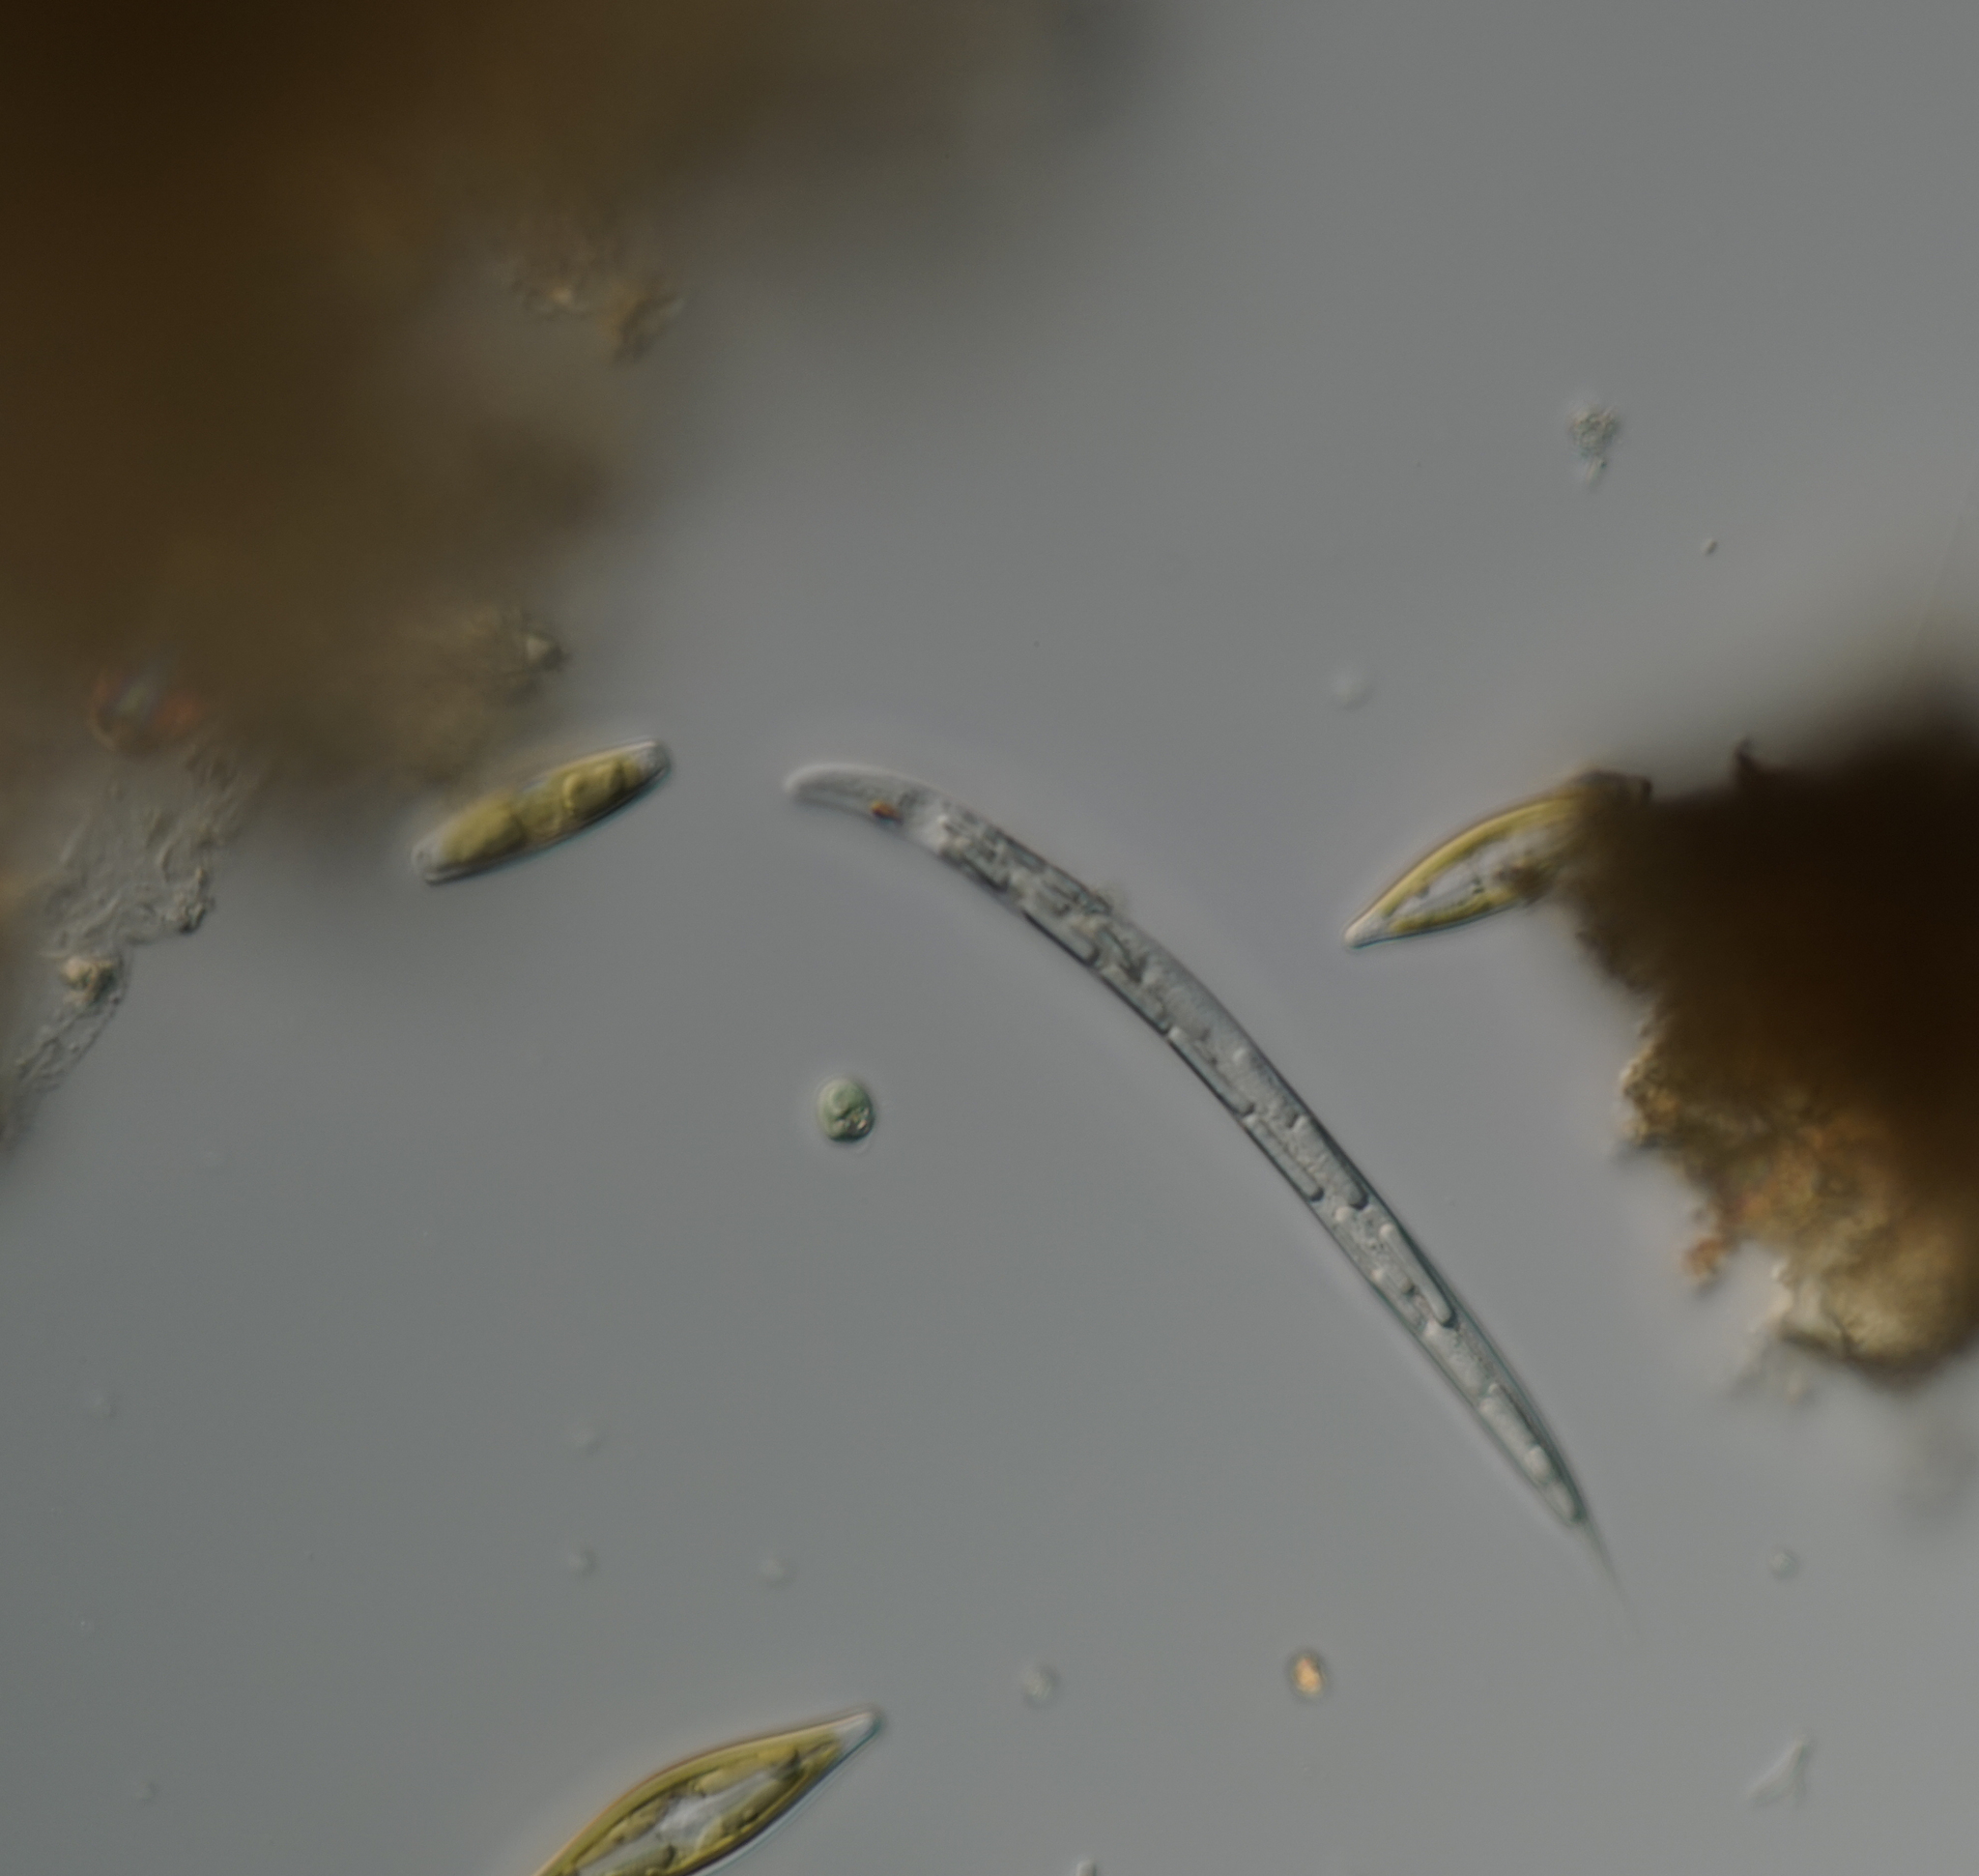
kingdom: Protozoa
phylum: Euglenozoa
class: Euglenoidea
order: Euglenida
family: Phacidae
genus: Lepocinclis
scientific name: Lepocinclis
